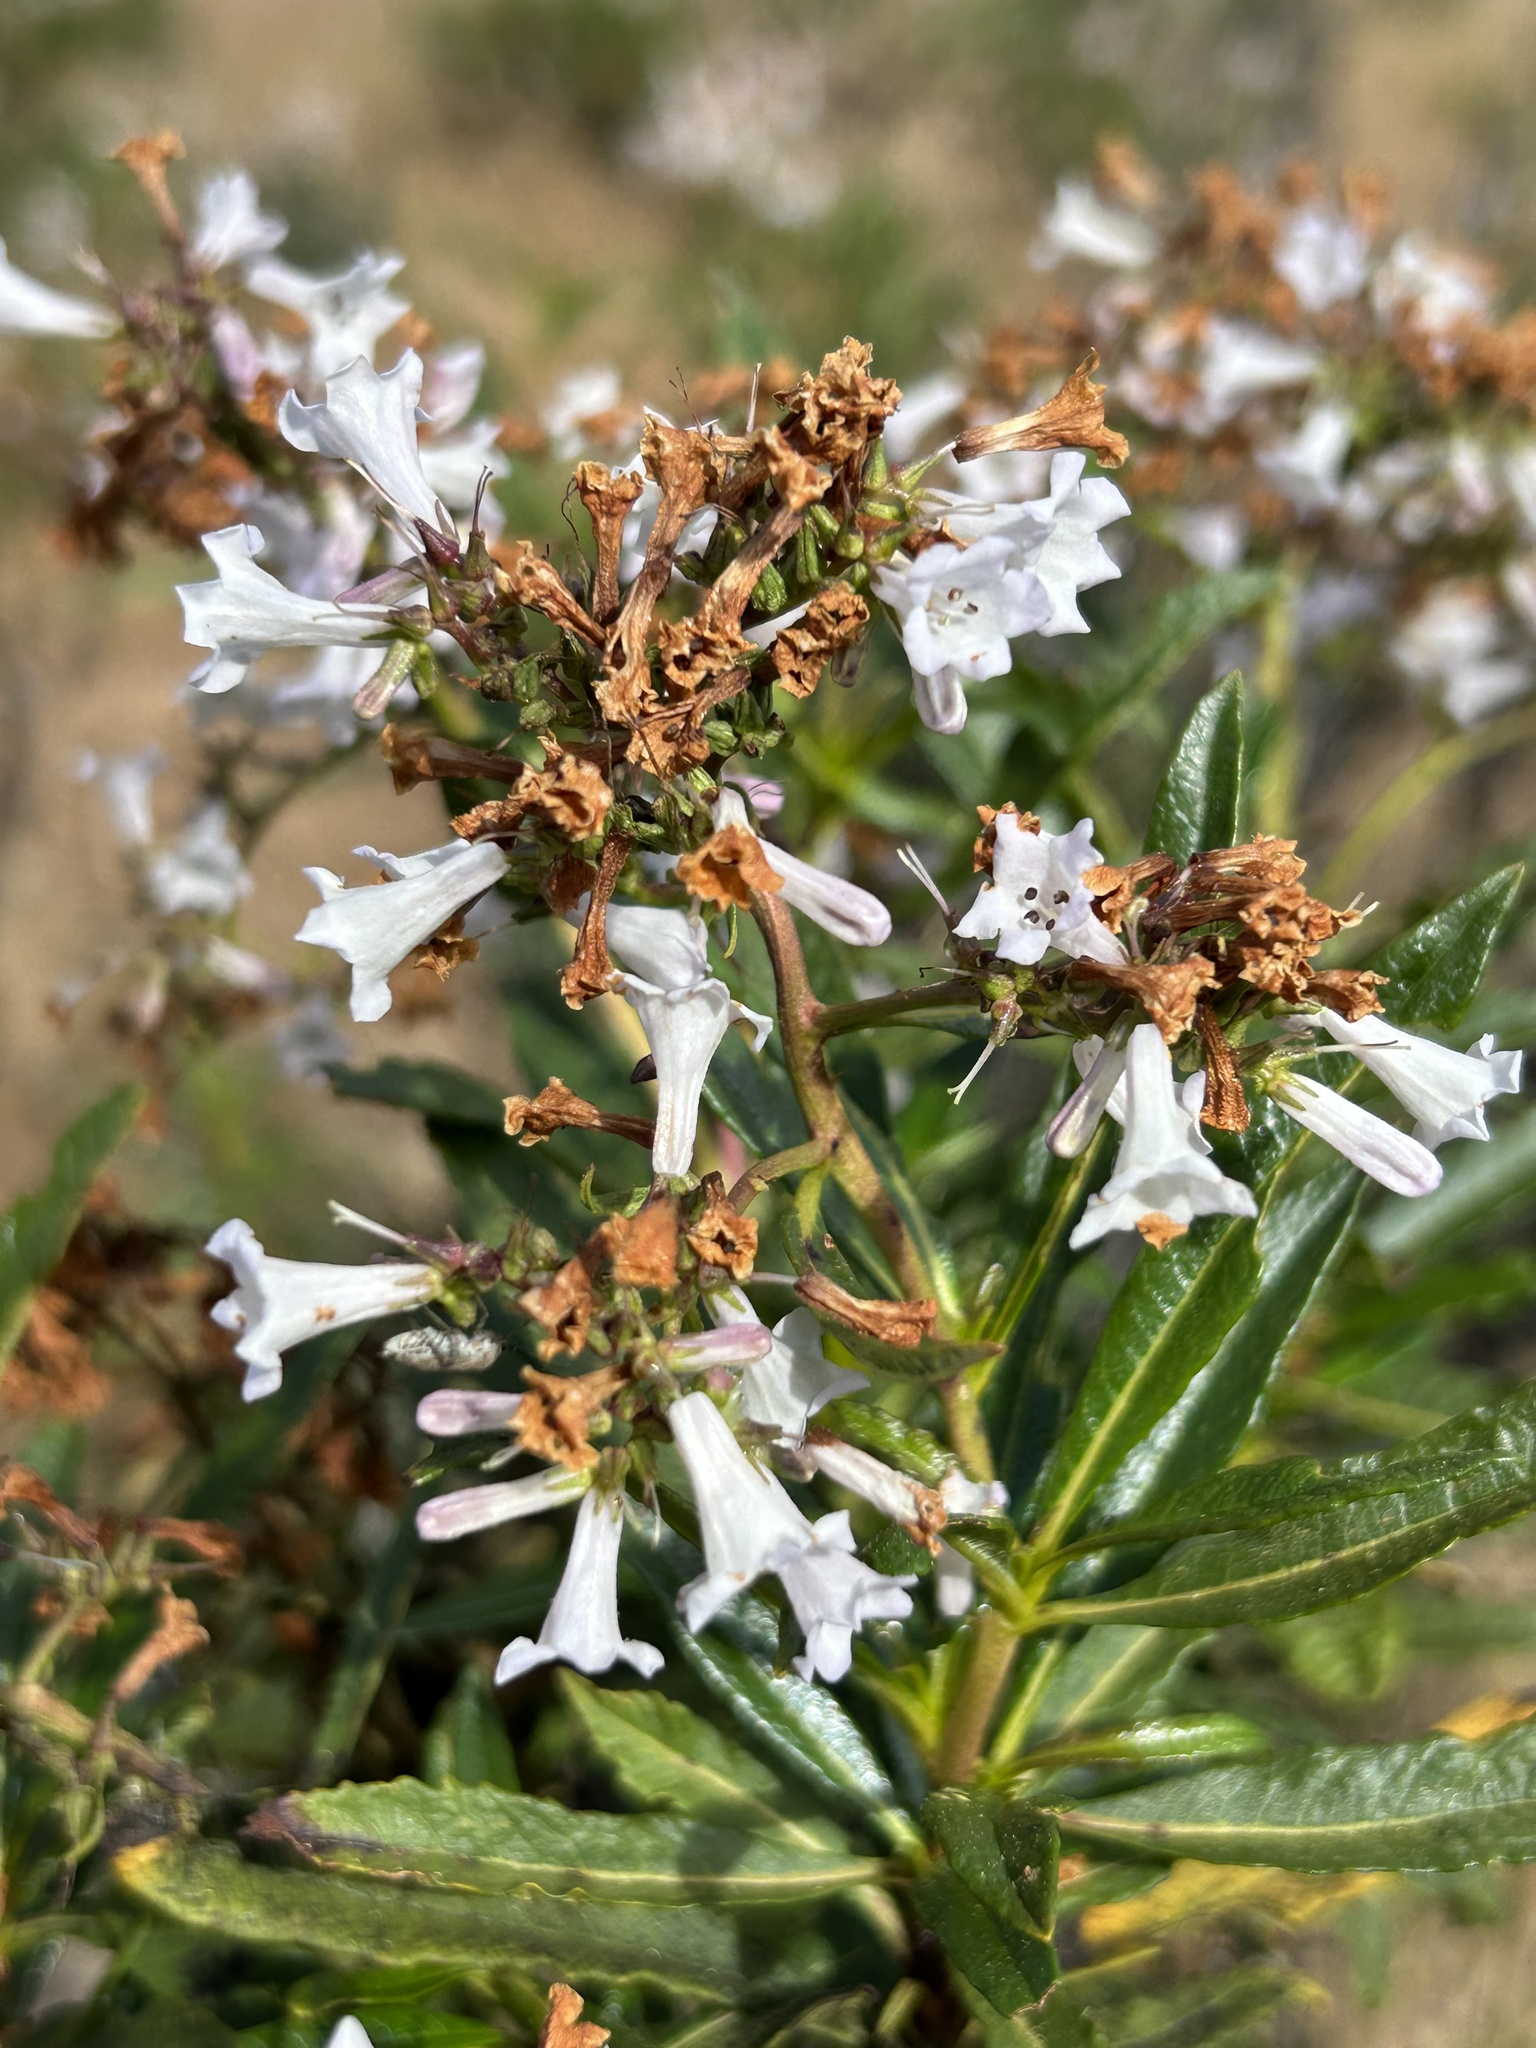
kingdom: Plantae
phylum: Tracheophyta
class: Magnoliopsida
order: Boraginales
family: Namaceae
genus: Eriodictyon
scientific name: Eriodictyon californicum
